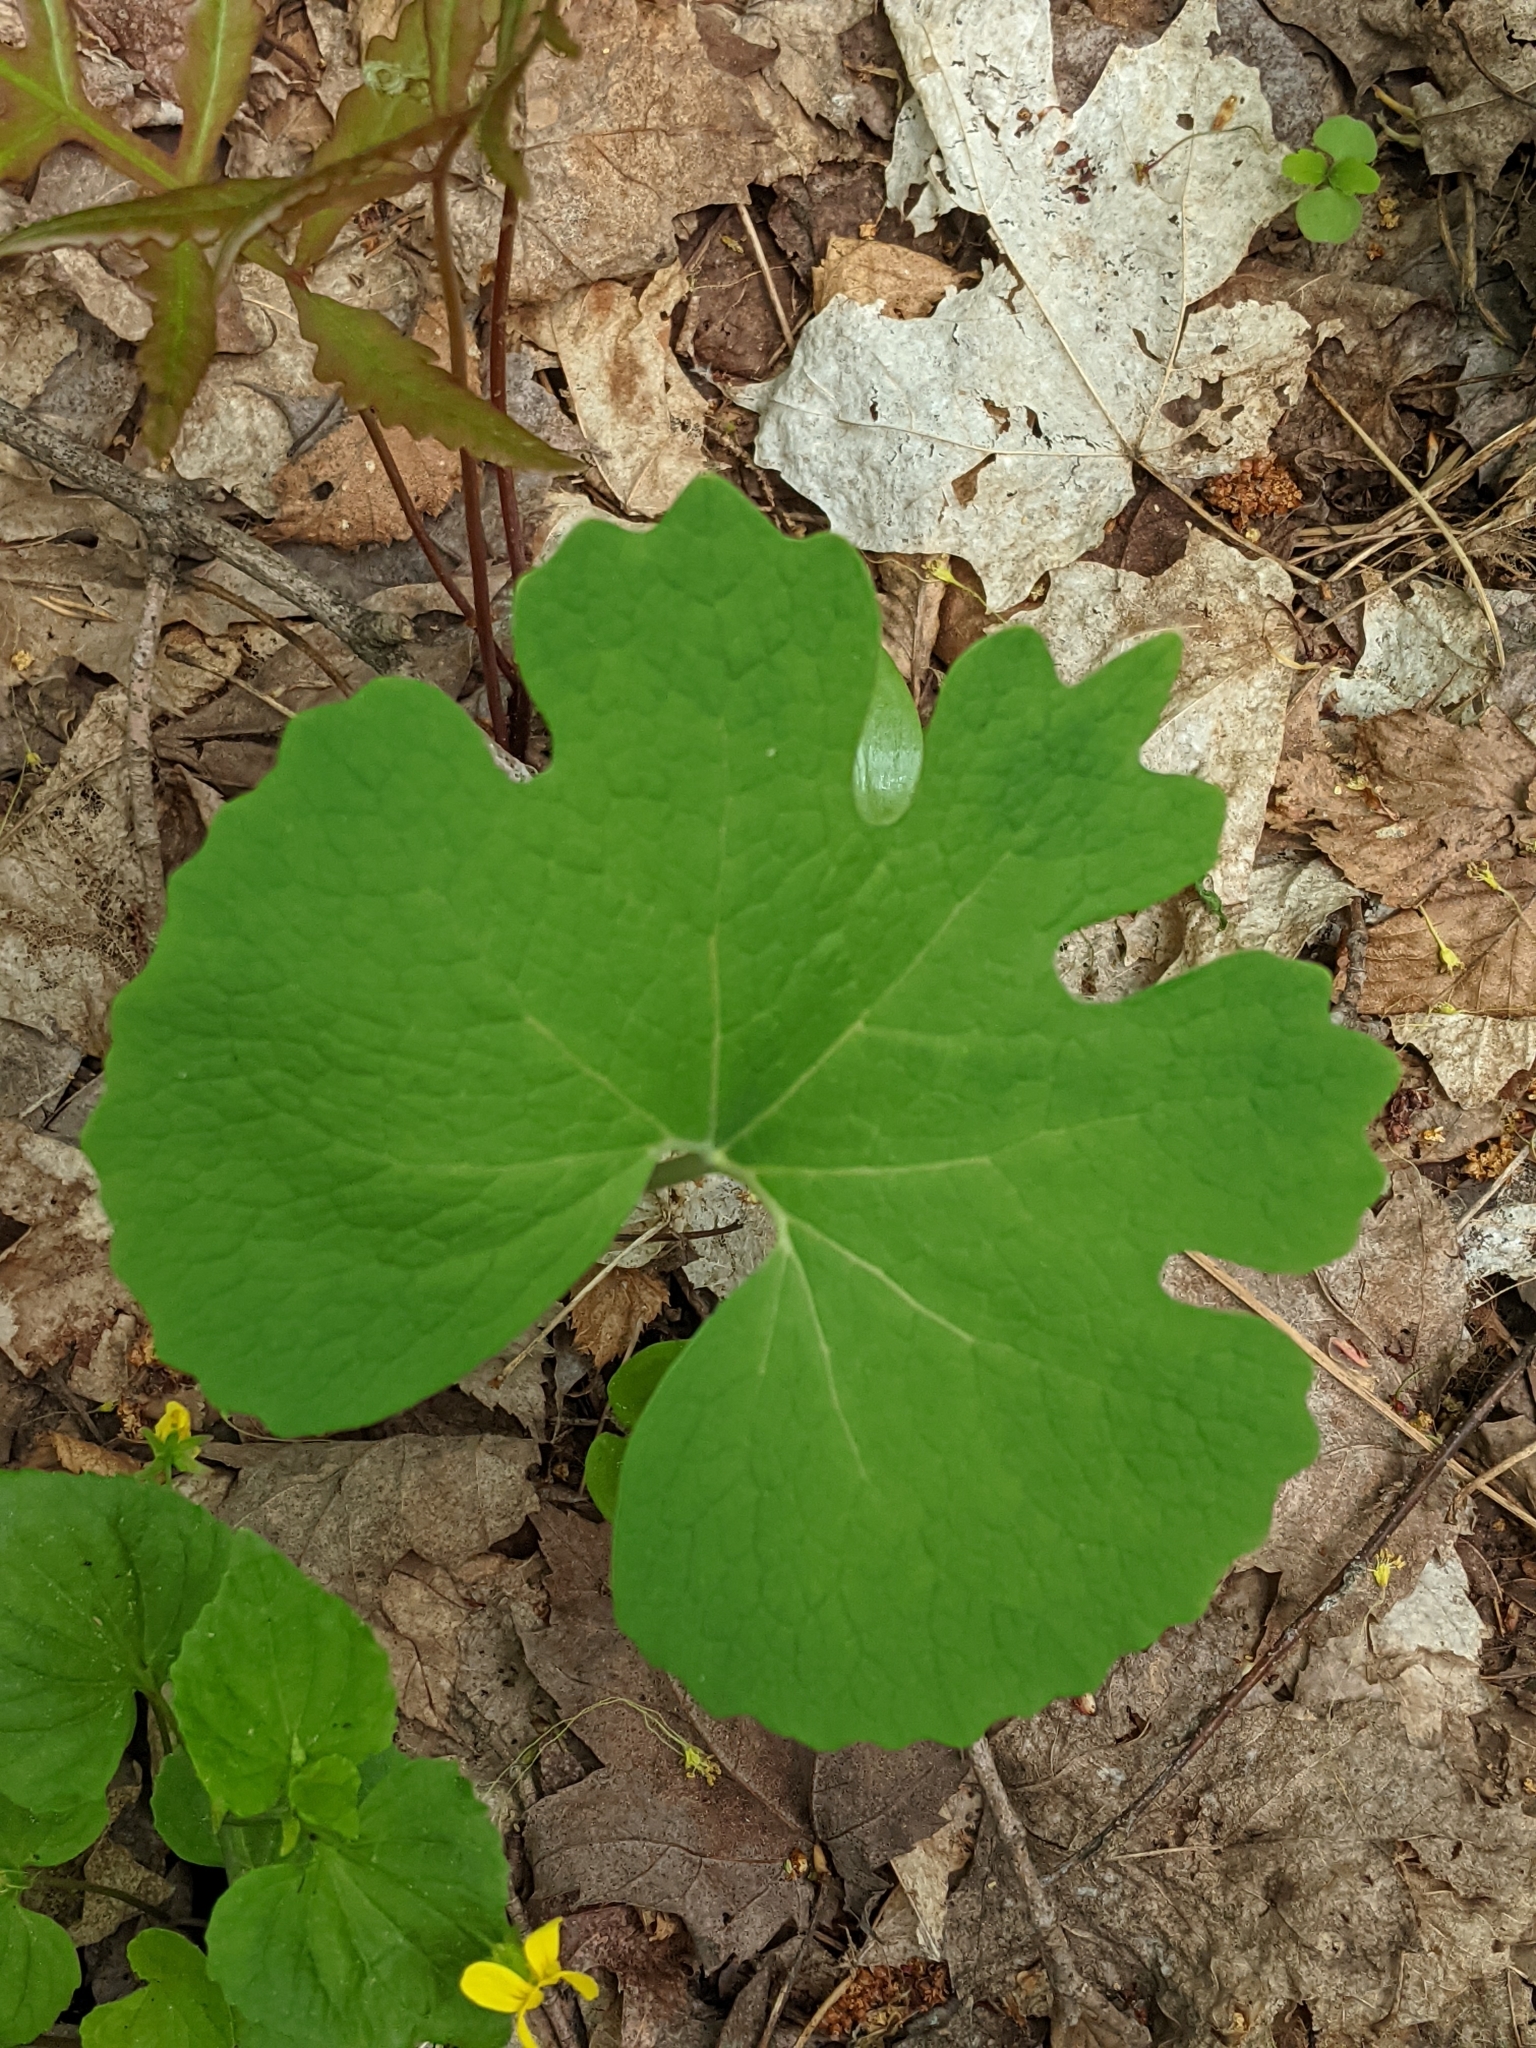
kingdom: Plantae
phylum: Tracheophyta
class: Magnoliopsida
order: Ranunculales
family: Papaveraceae
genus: Sanguinaria
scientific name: Sanguinaria canadensis
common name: Bloodroot
